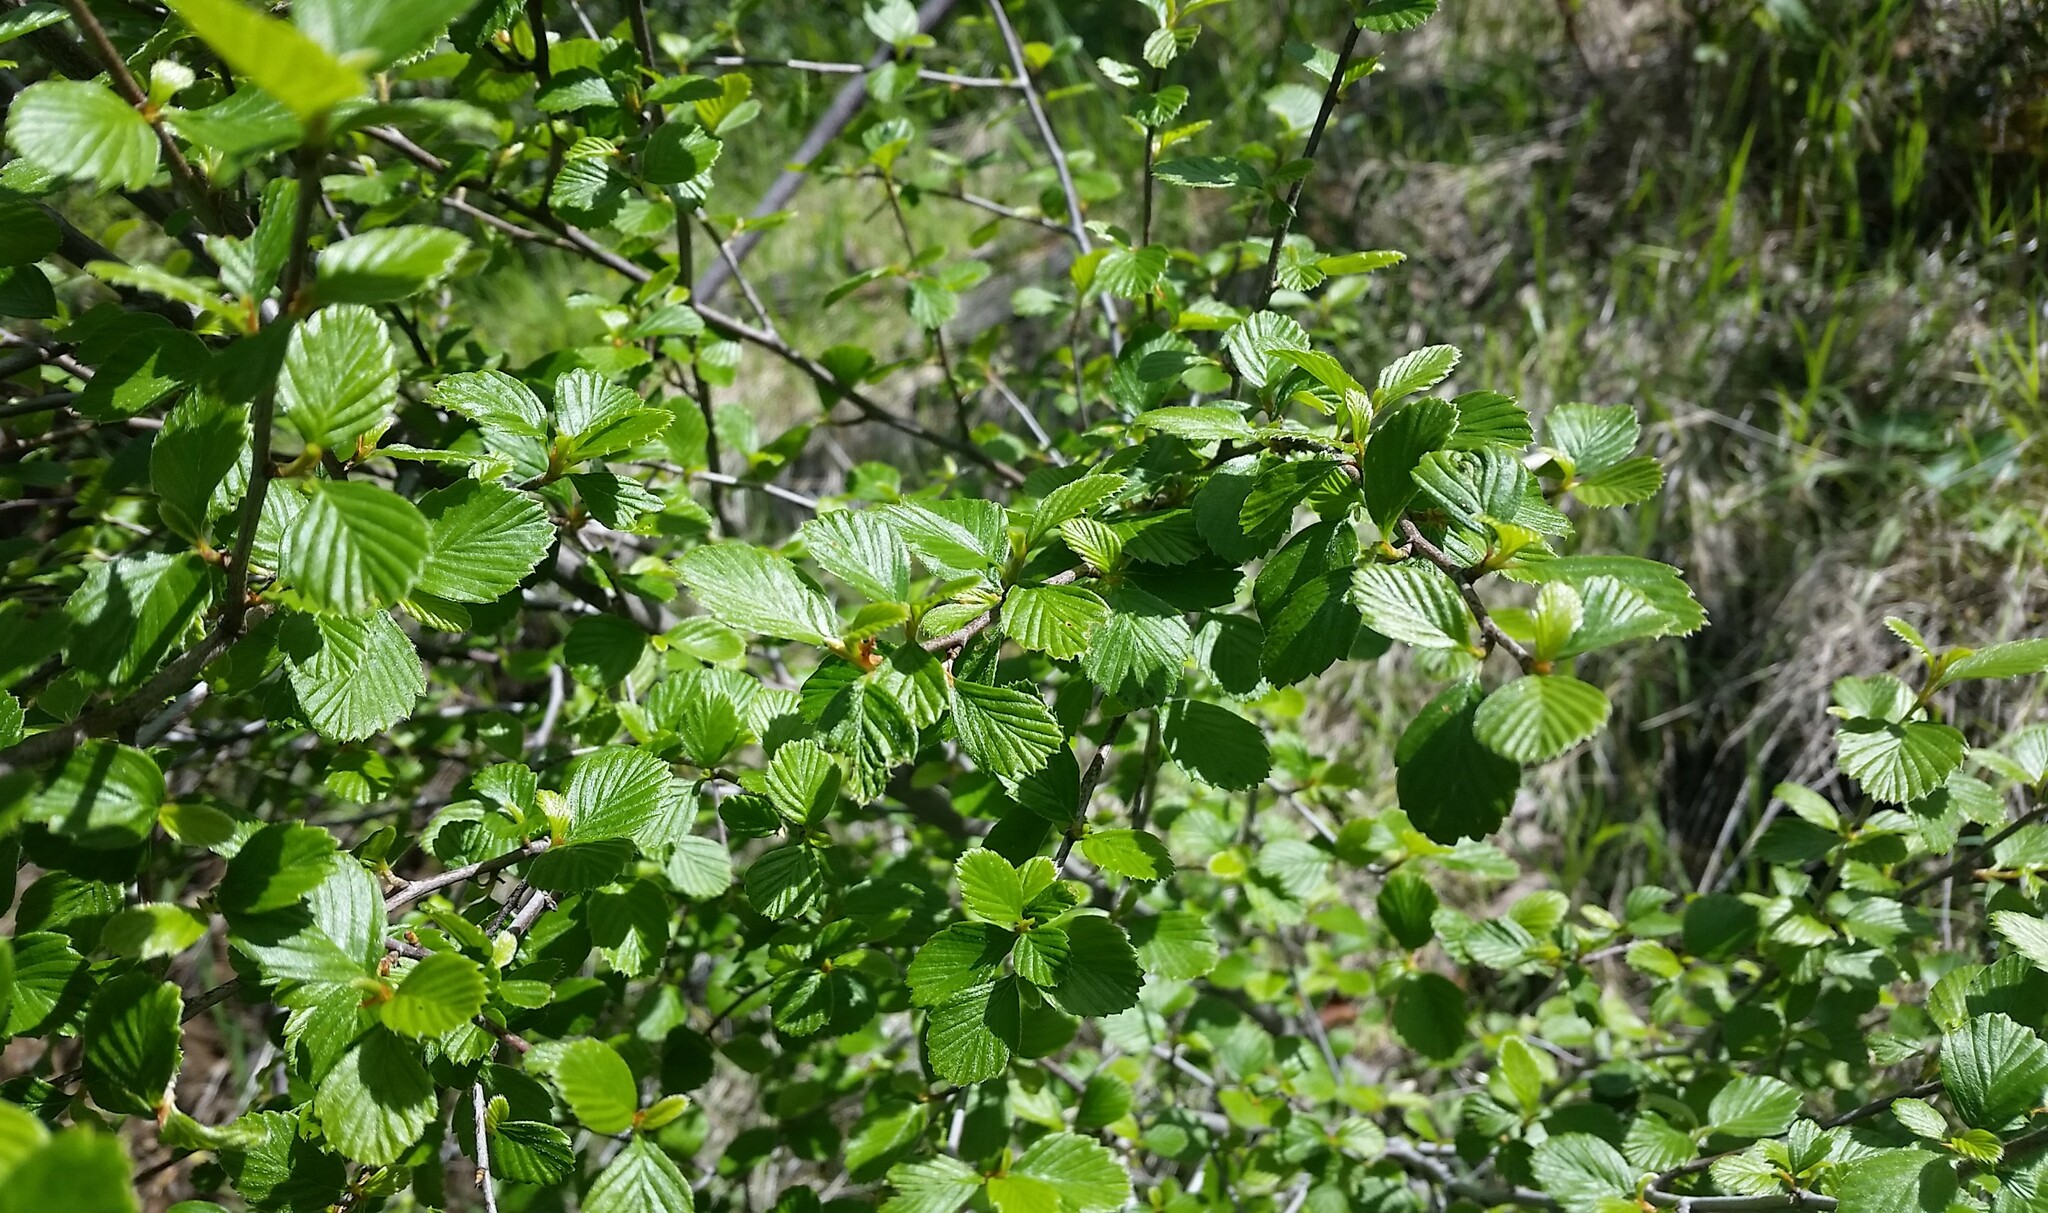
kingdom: Plantae
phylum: Tracheophyta
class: Magnoliopsida
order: Rosales
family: Rosaceae
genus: Cercocarpus
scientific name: Cercocarpus betuloides
